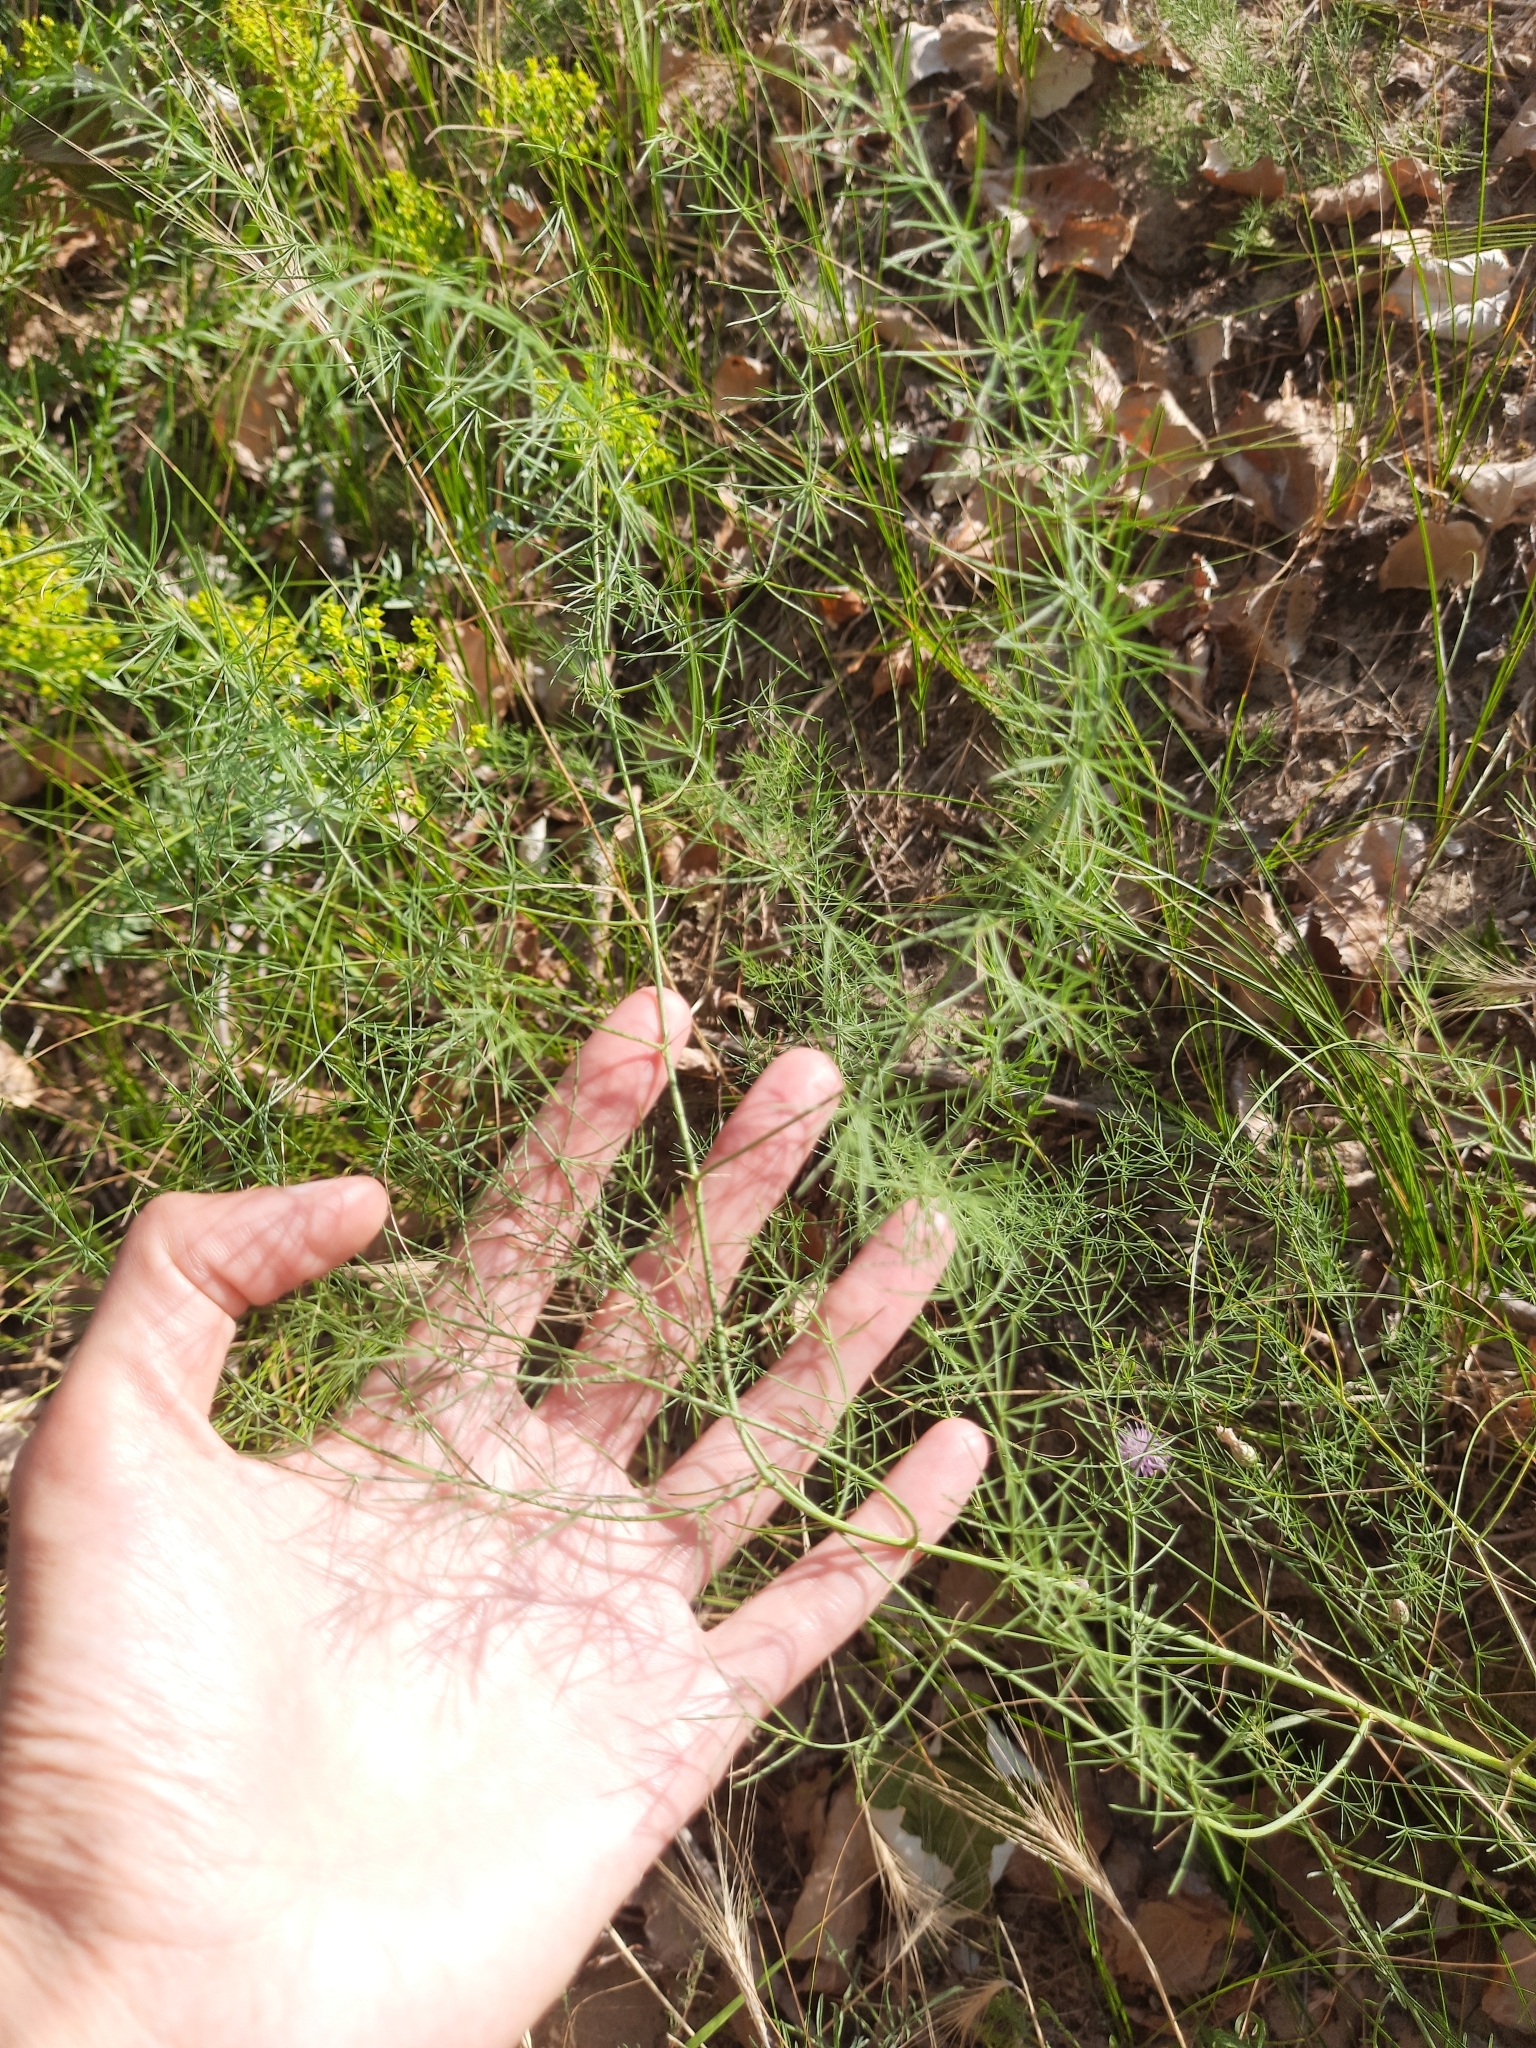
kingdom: Plantae
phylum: Tracheophyta
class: Liliopsida
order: Asparagales
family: Asparagaceae
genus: Asparagus
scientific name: Asparagus officinalis
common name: Garden asparagus
